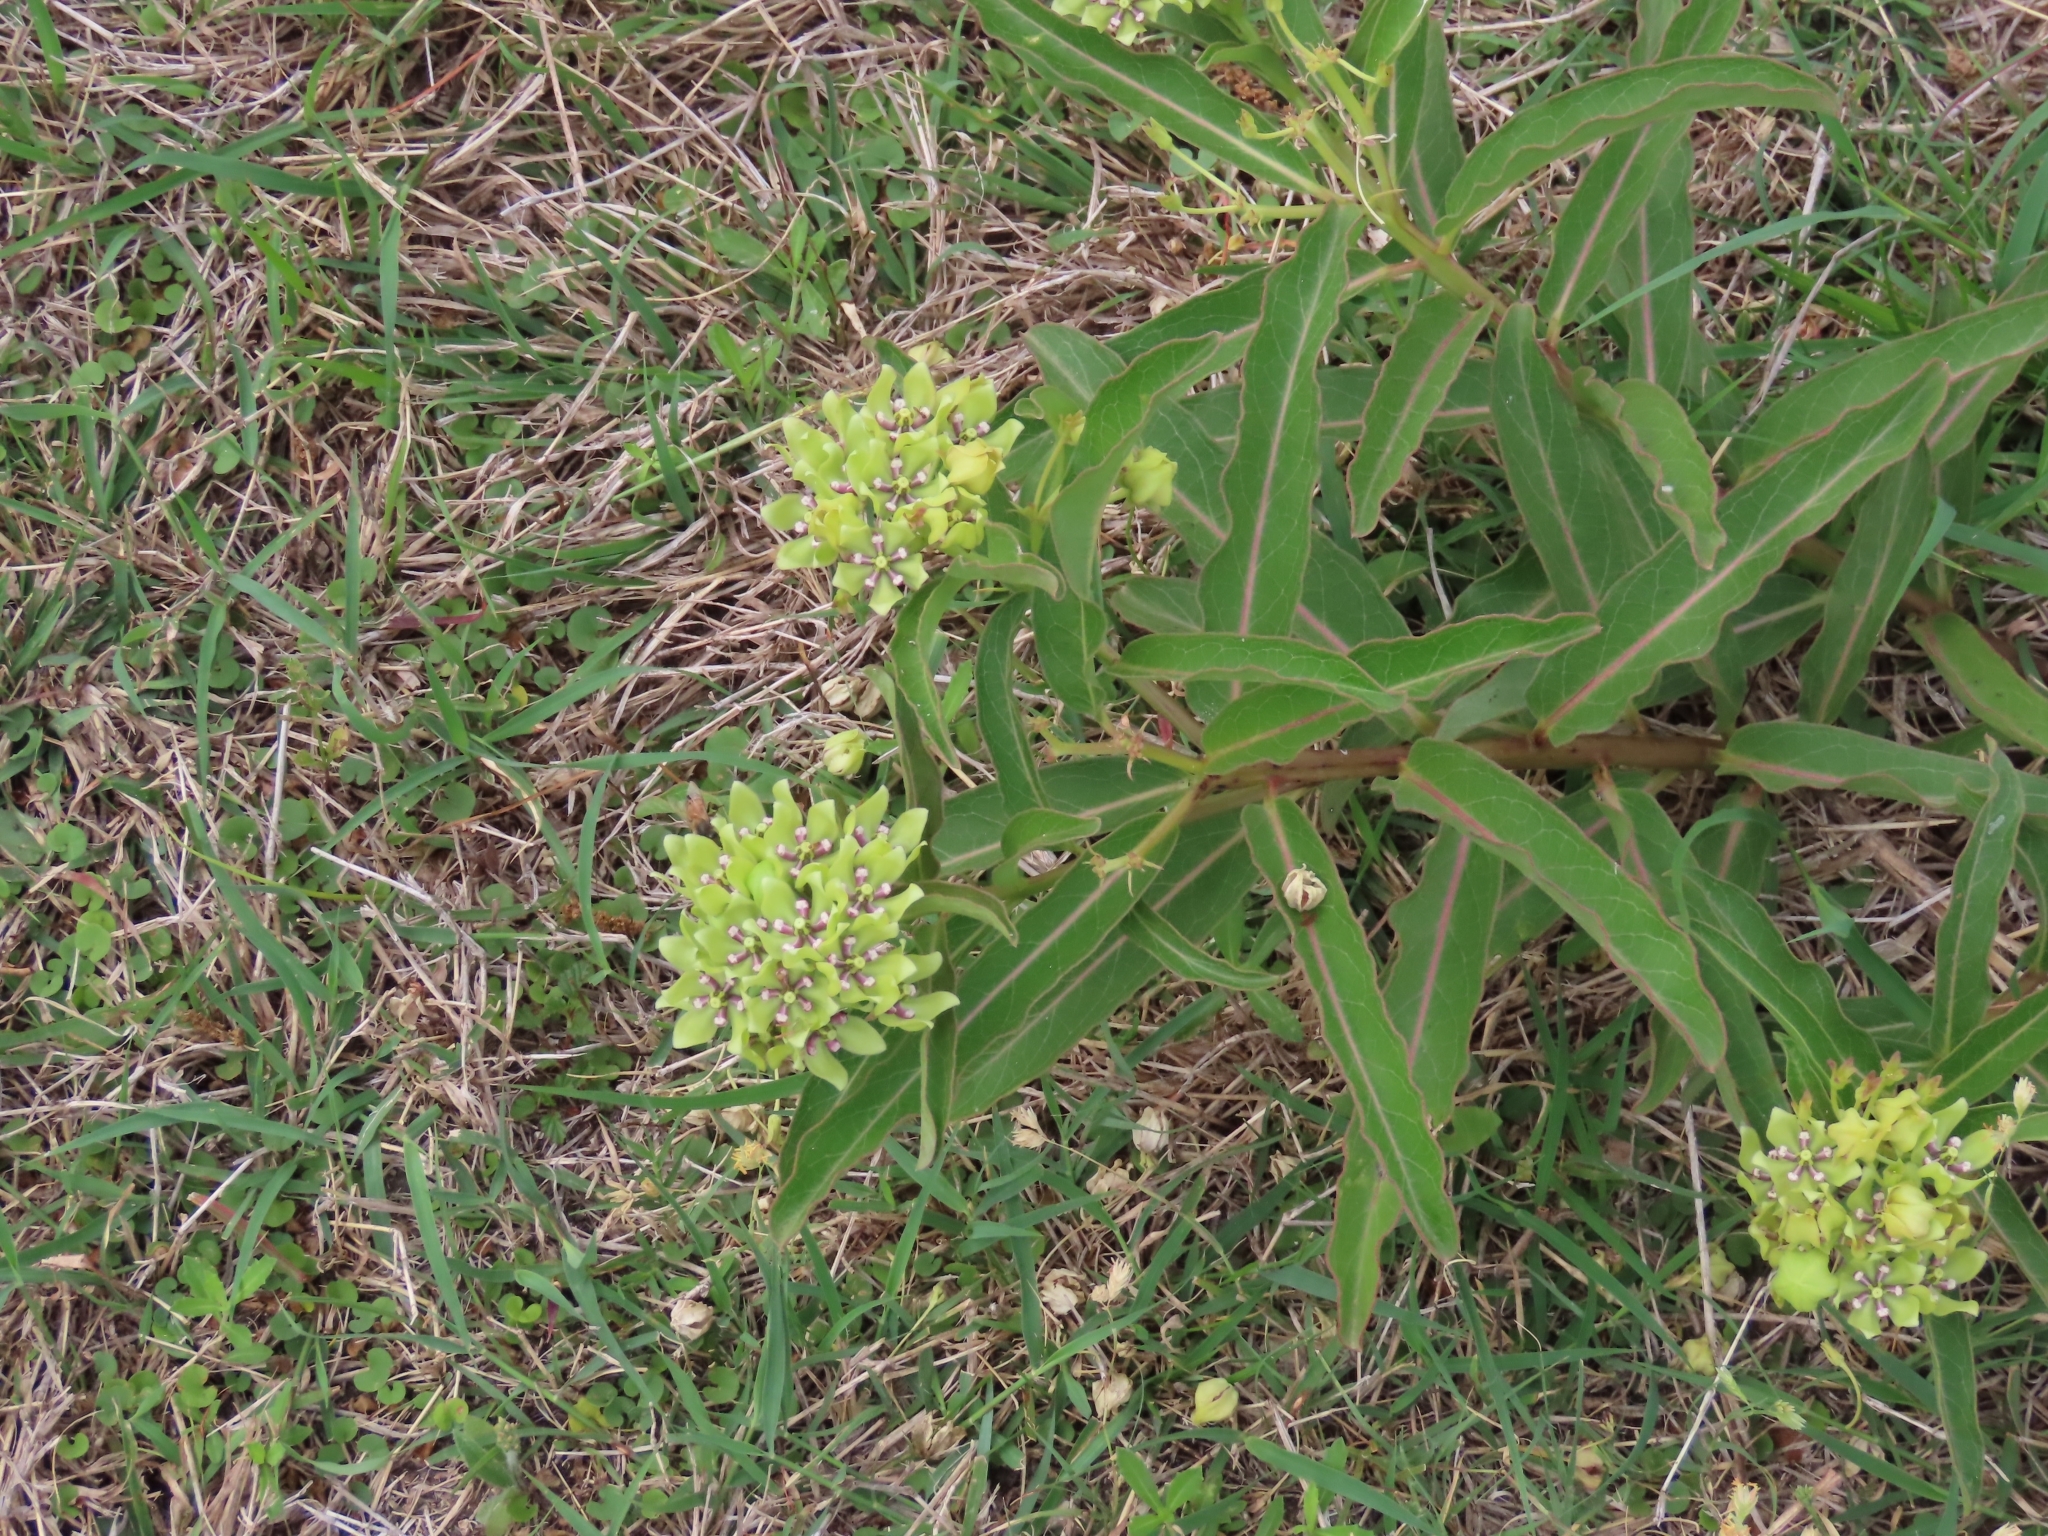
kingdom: Plantae
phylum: Tracheophyta
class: Magnoliopsida
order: Gentianales
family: Apocynaceae
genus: Asclepias
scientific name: Asclepias viridis
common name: Antelope-horns
